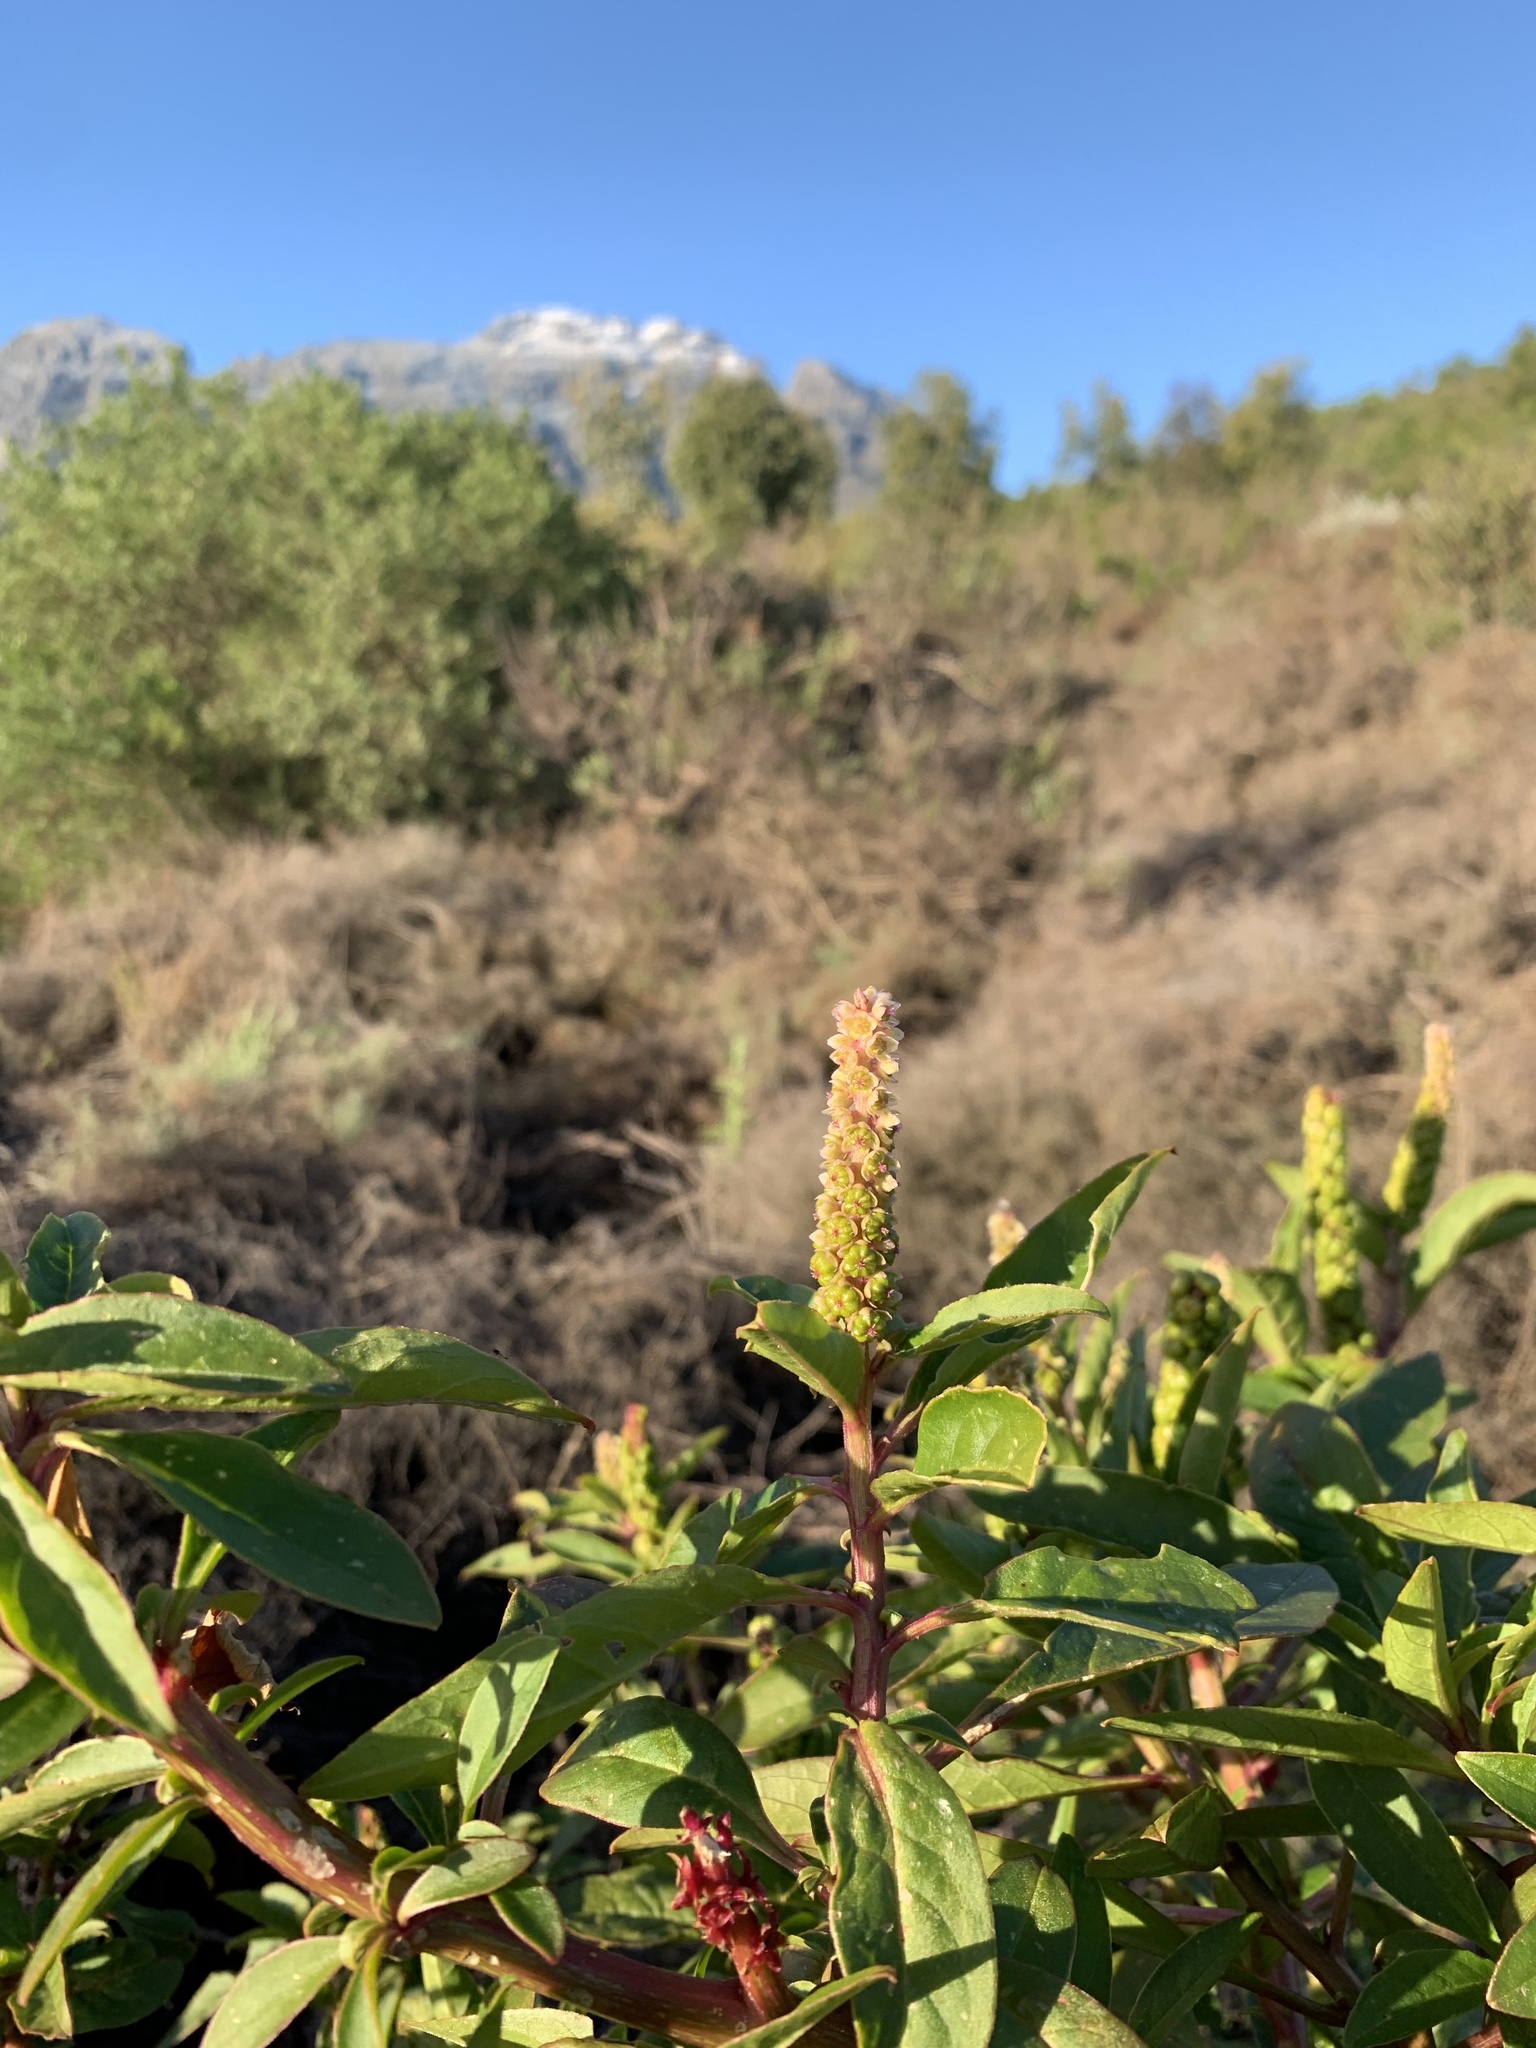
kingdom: Plantae
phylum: Tracheophyta
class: Magnoliopsida
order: Caryophyllales
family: Phytolaccaceae
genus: Phytolacca
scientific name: Phytolacca icosandra
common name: Button pokeweed
